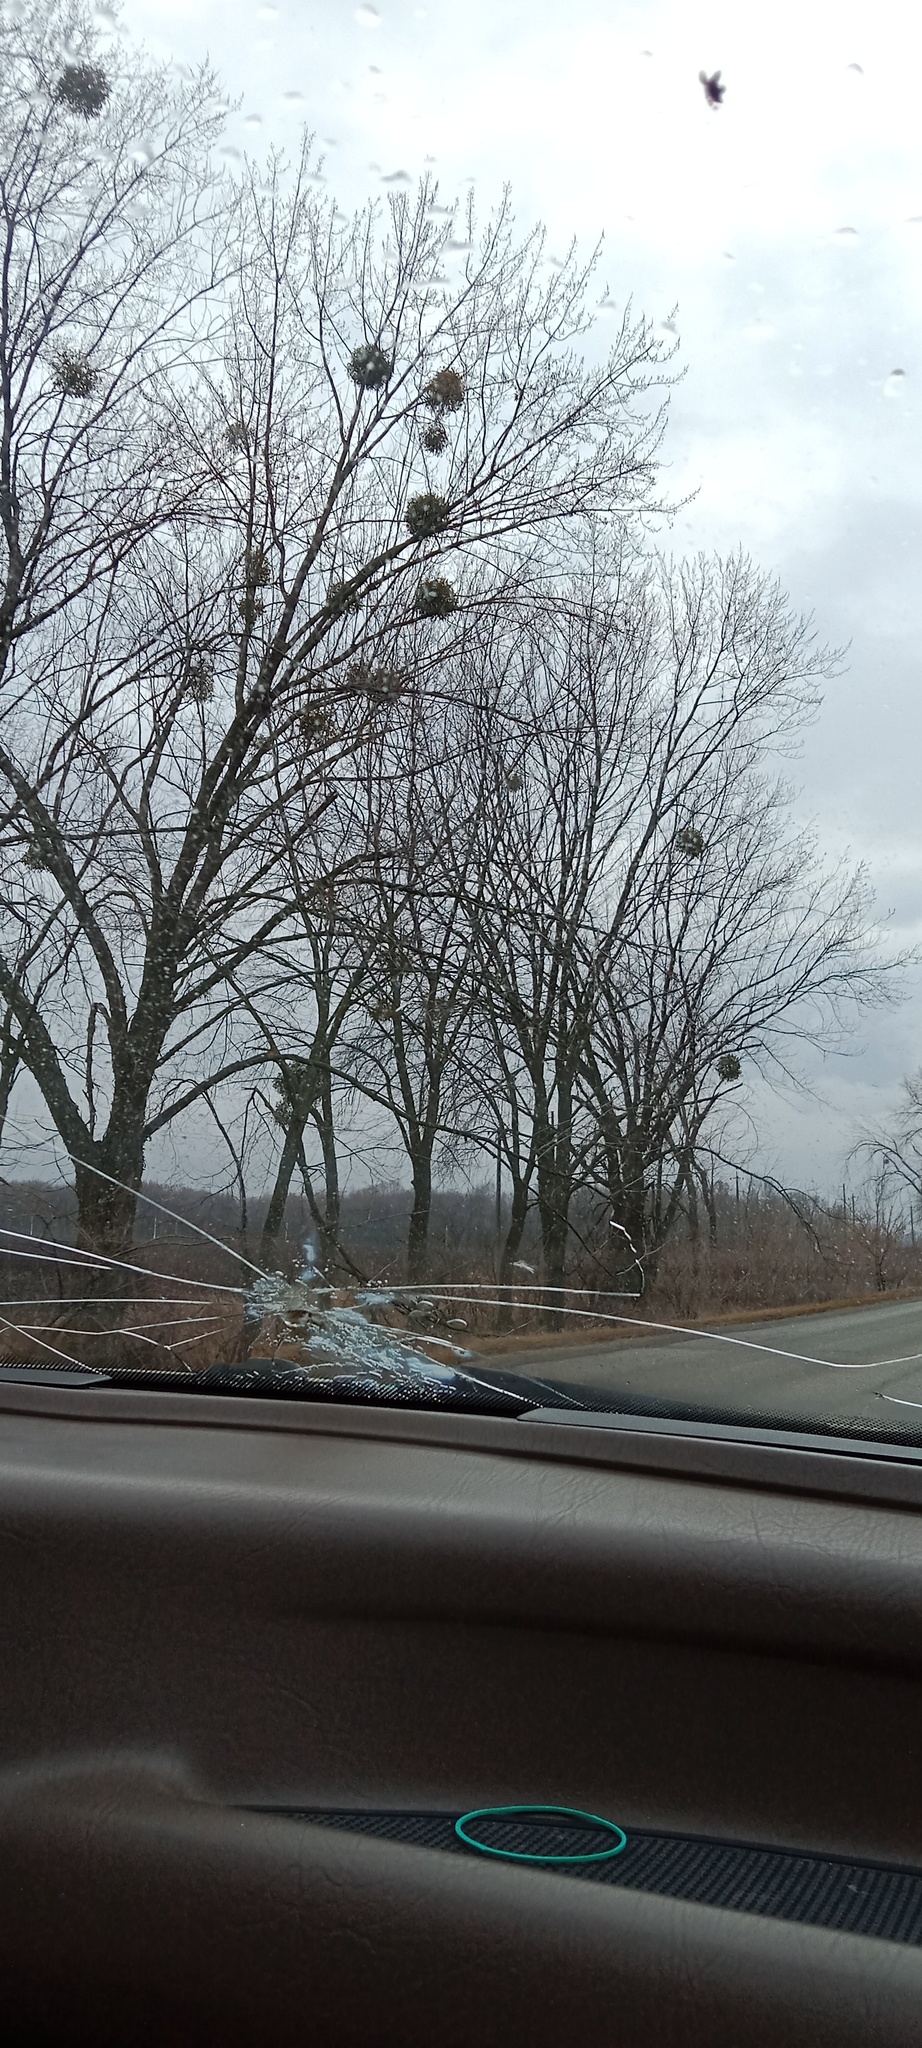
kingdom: Plantae
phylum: Tracheophyta
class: Magnoliopsida
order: Santalales
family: Viscaceae
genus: Viscum
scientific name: Viscum album
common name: Mistletoe
